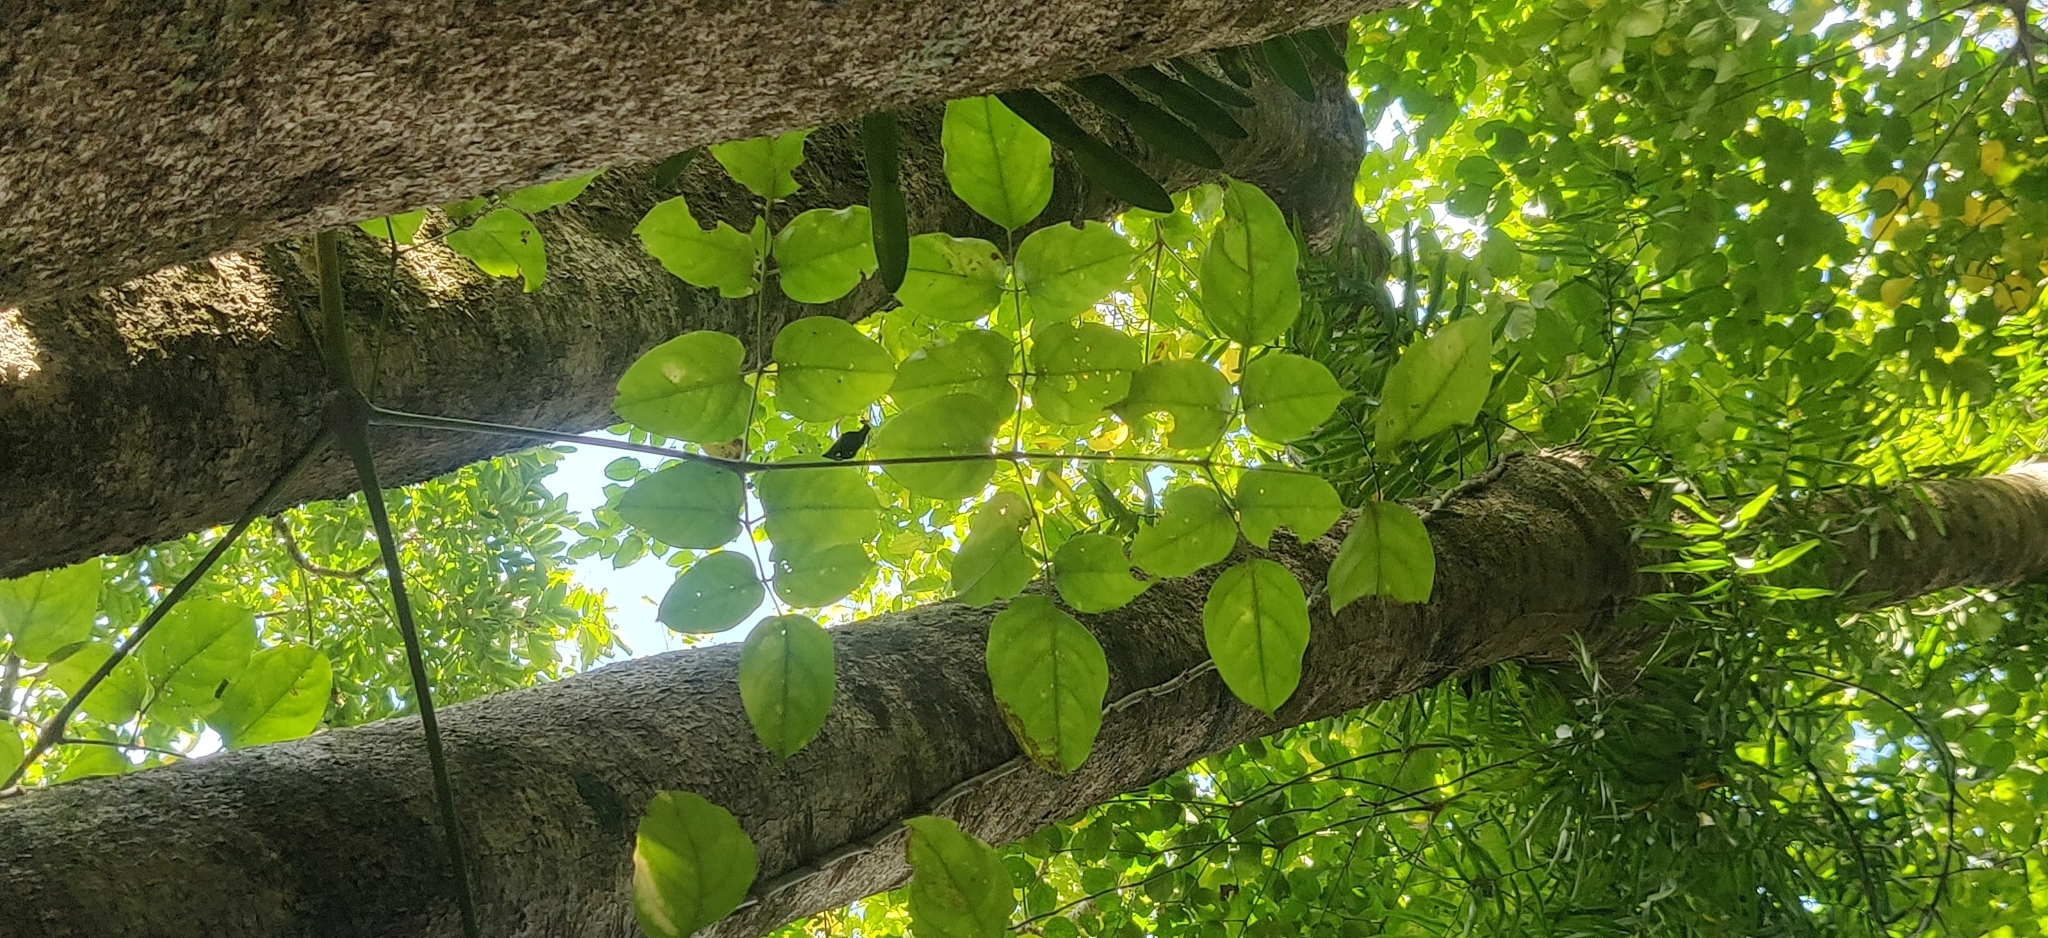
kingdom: Plantae
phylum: Tracheophyta
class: Magnoliopsida
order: Apiales
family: Araliaceae
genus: Heteropanax
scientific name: Heteropanax fragrans
